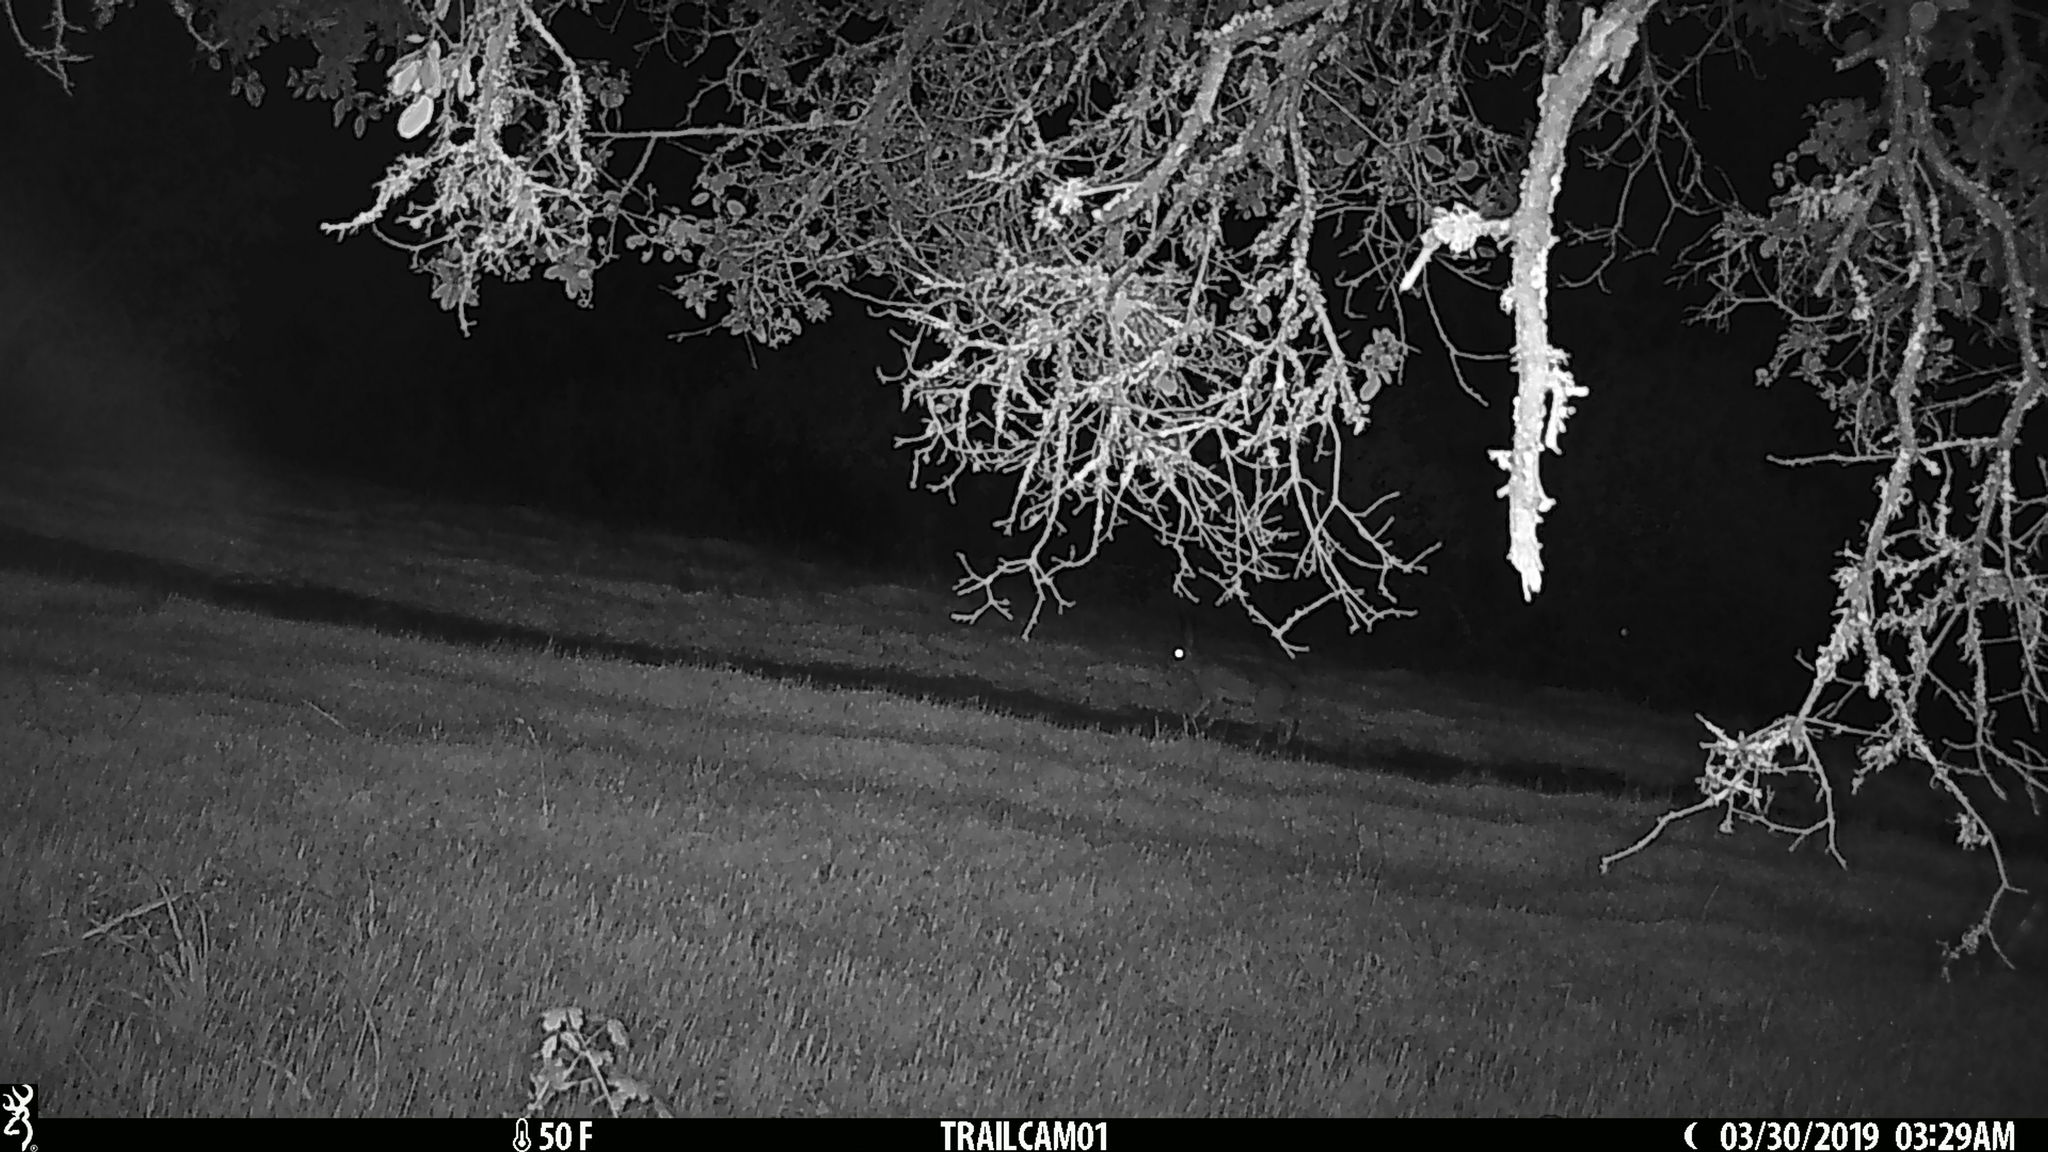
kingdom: Animalia
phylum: Chordata
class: Mammalia
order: Lagomorpha
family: Leporidae
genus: Lepus
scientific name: Lepus californicus
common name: Black-tailed jackrabbit
